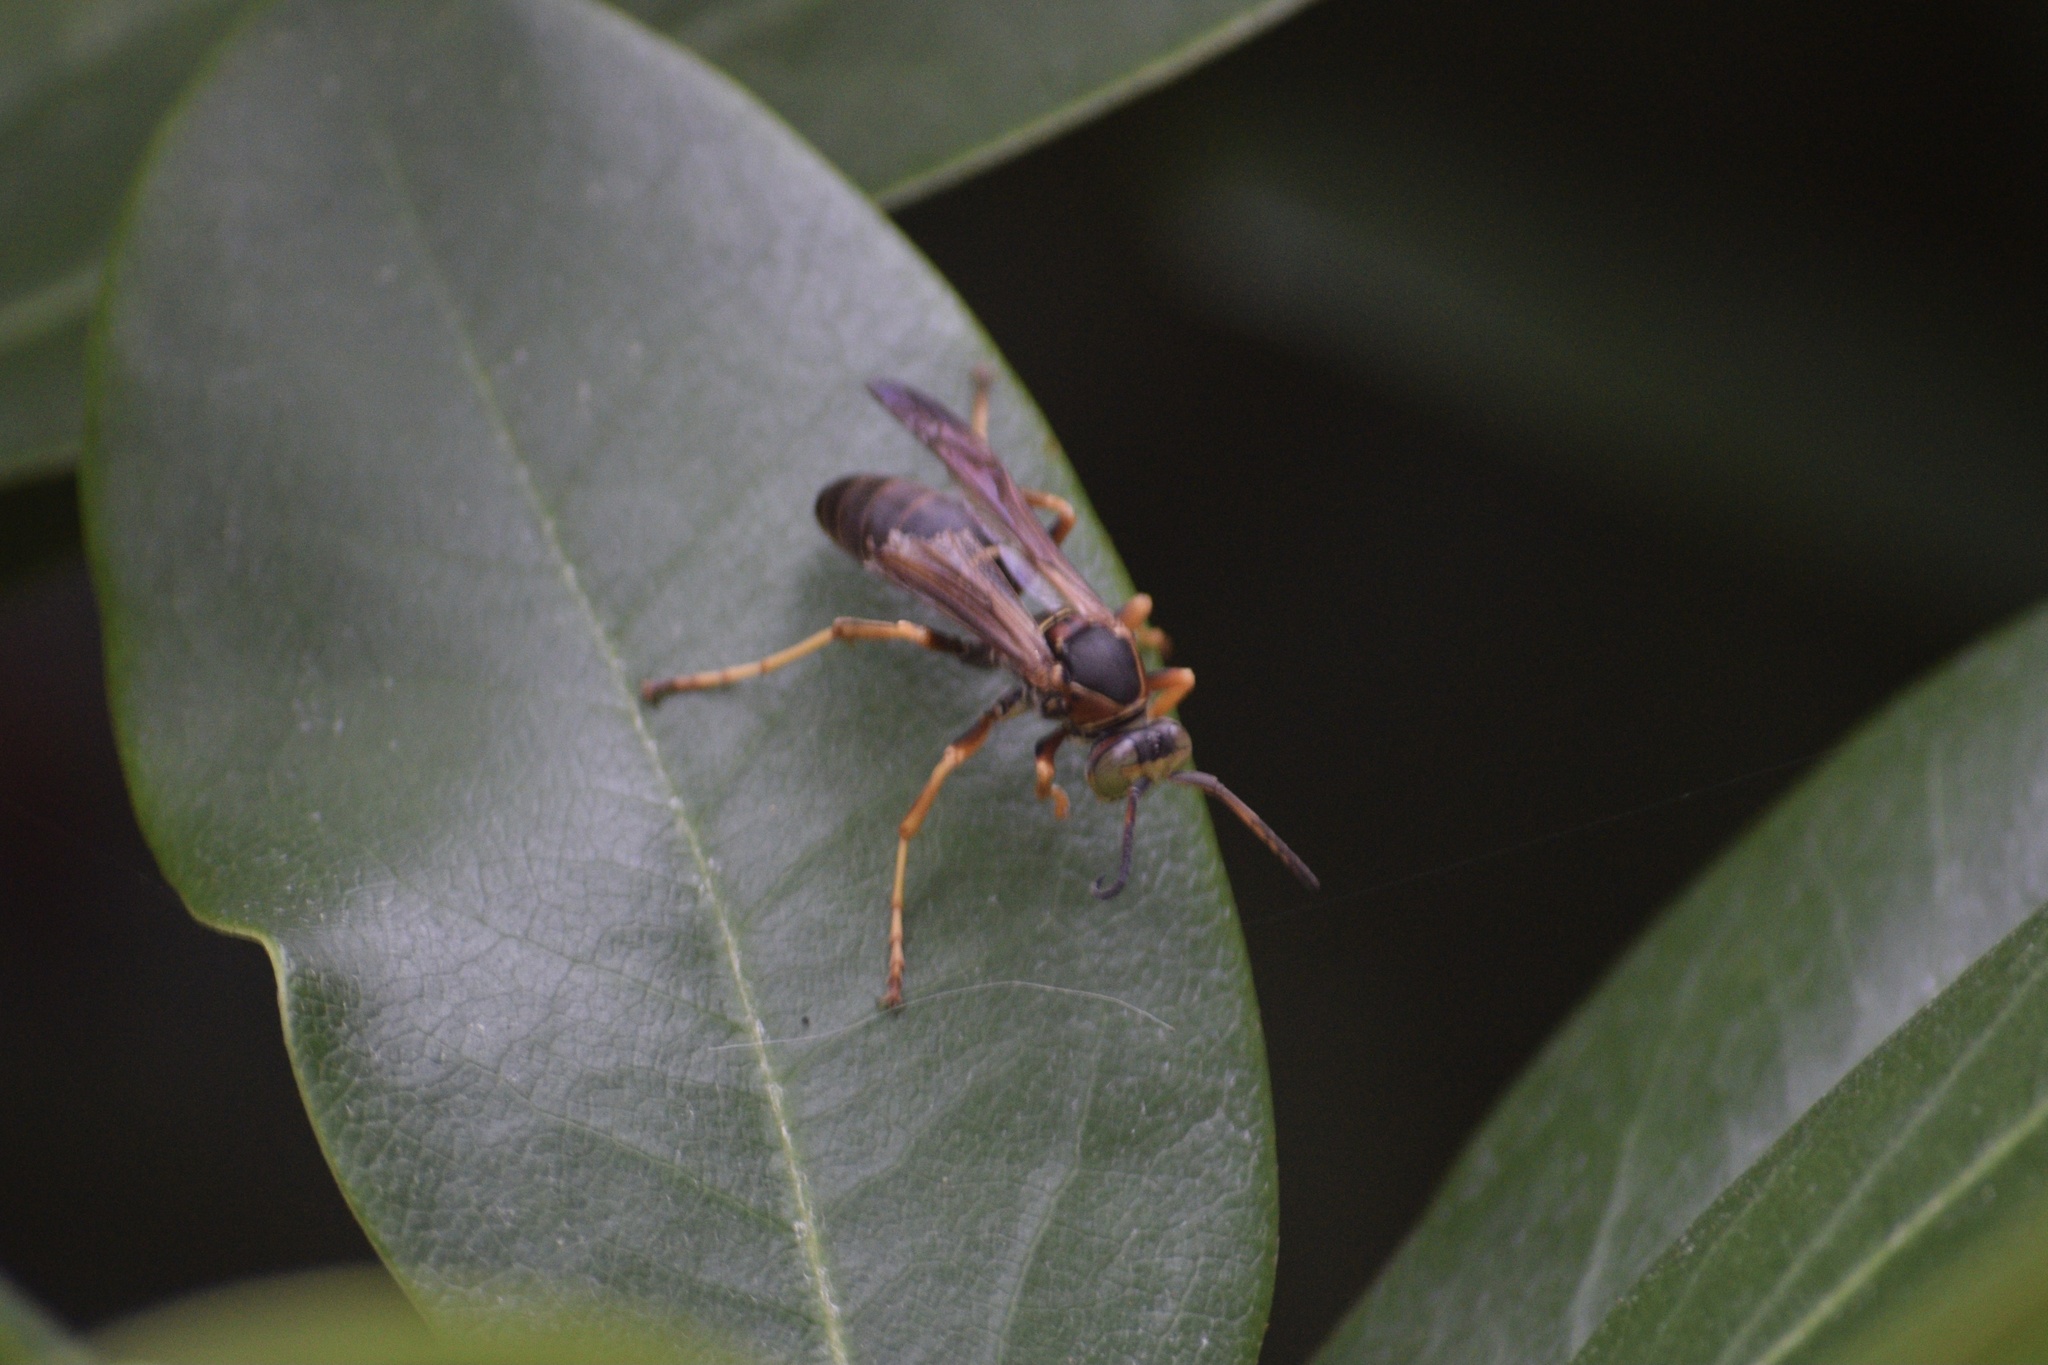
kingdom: Animalia
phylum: Arthropoda
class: Insecta
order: Hymenoptera
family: Eumenidae
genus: Polistes
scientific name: Polistes fuscatus
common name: Dark paper wasp
